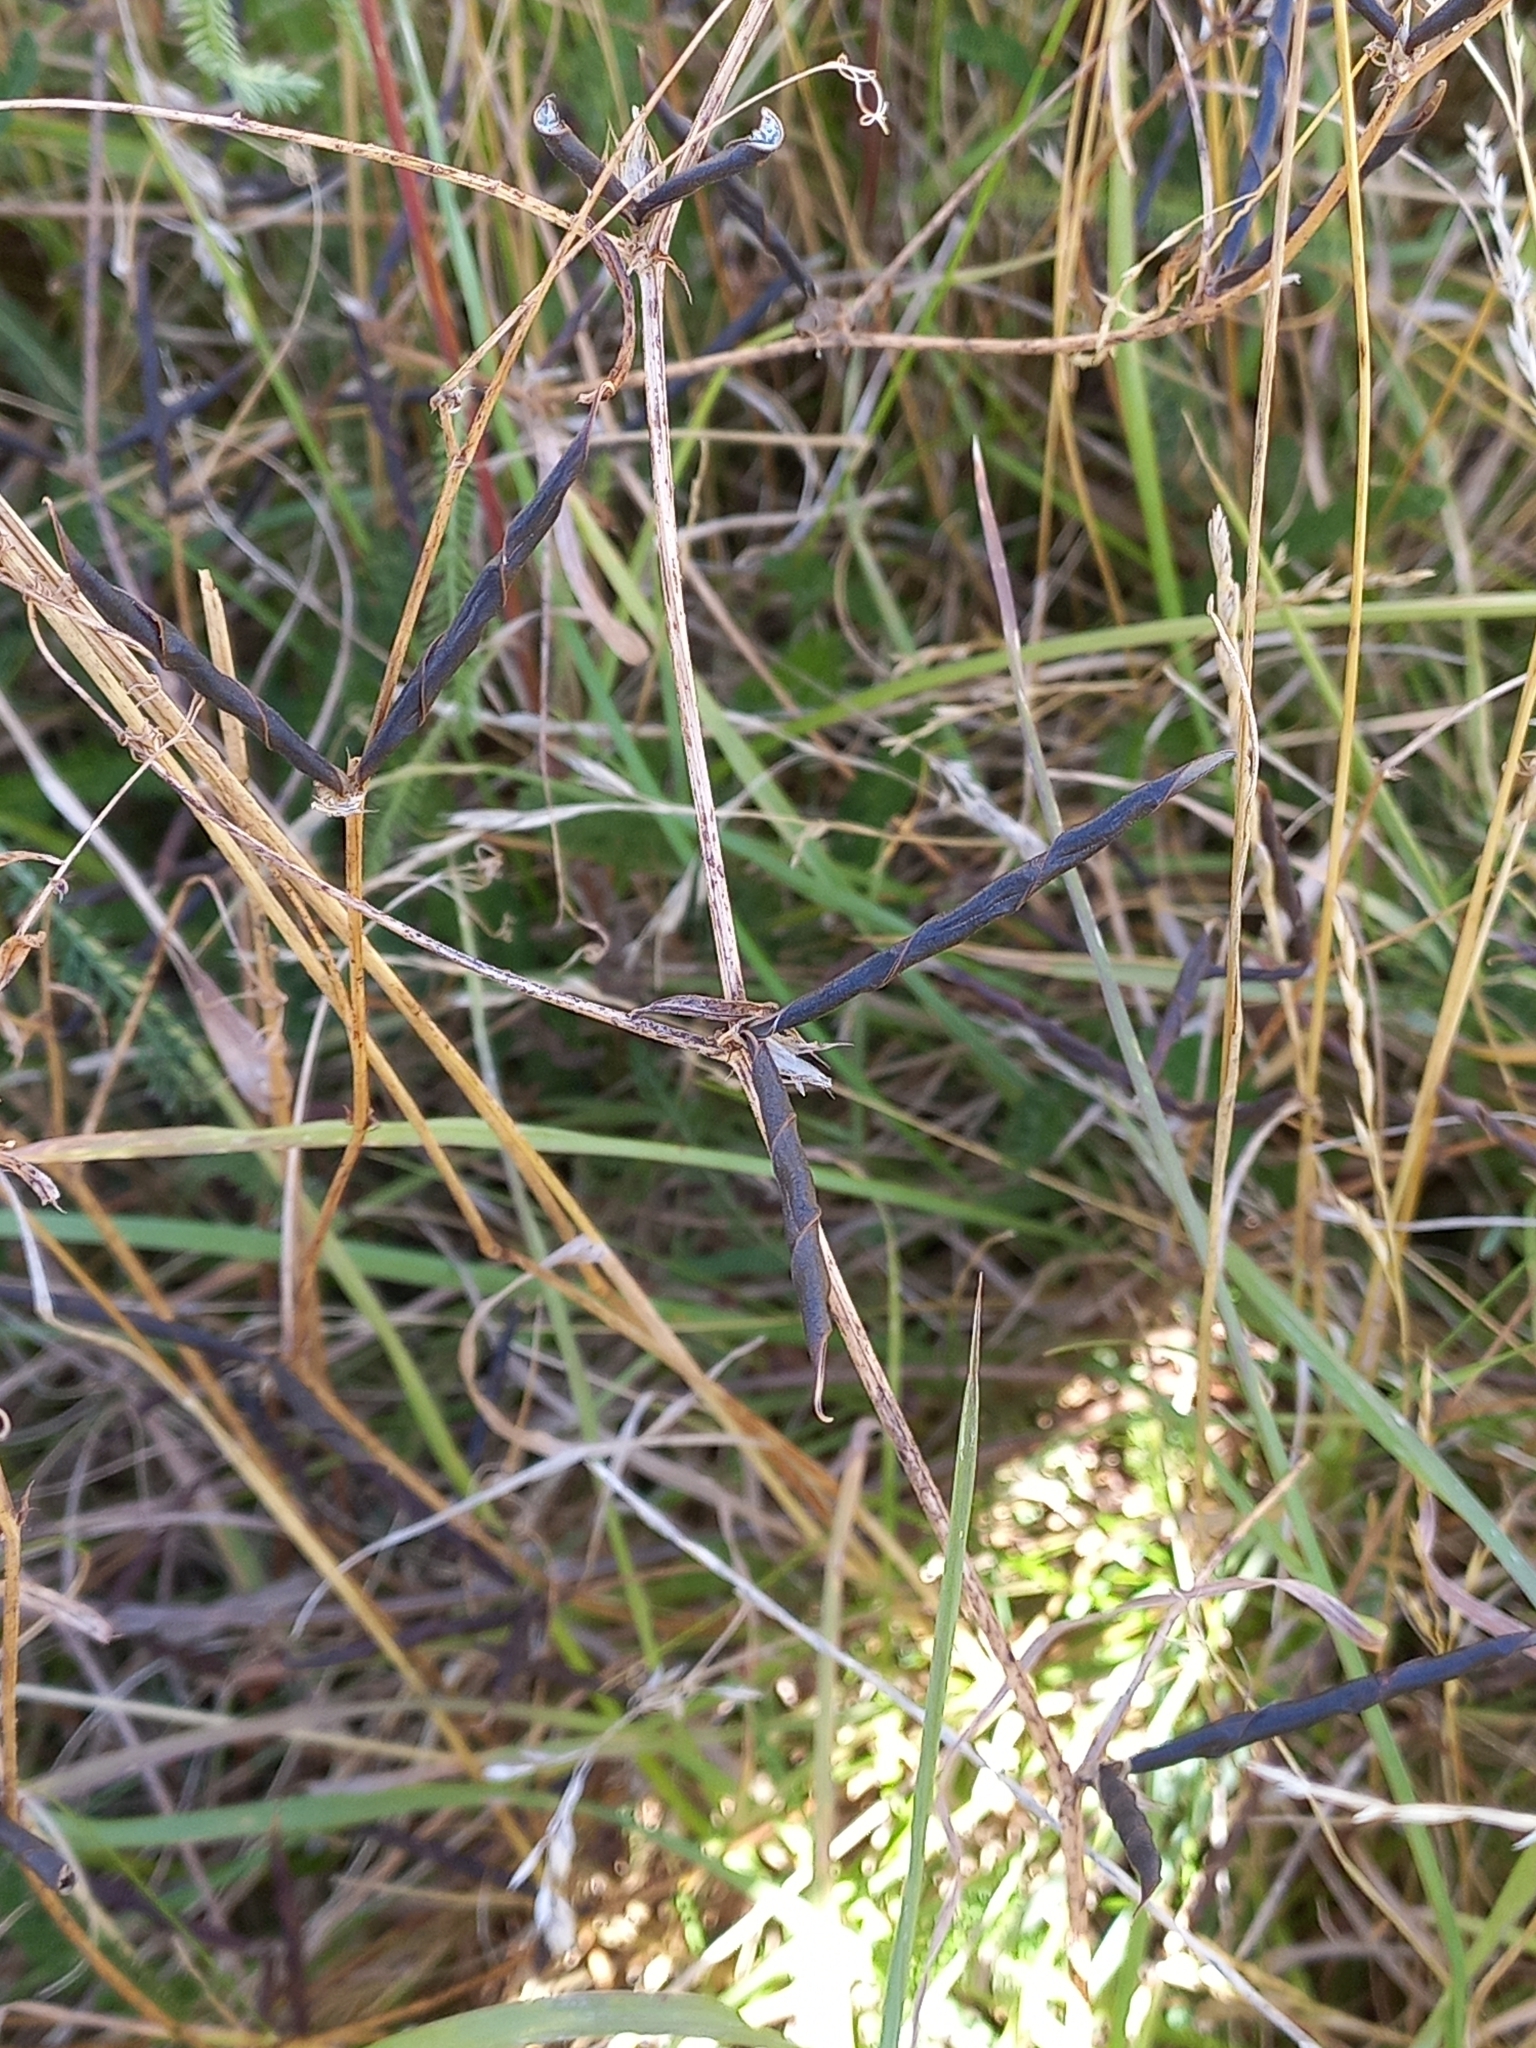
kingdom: Plantae
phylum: Tracheophyta
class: Magnoliopsida
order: Fabales
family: Fabaceae
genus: Vicia
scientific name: Vicia sativa
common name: Garden vetch
